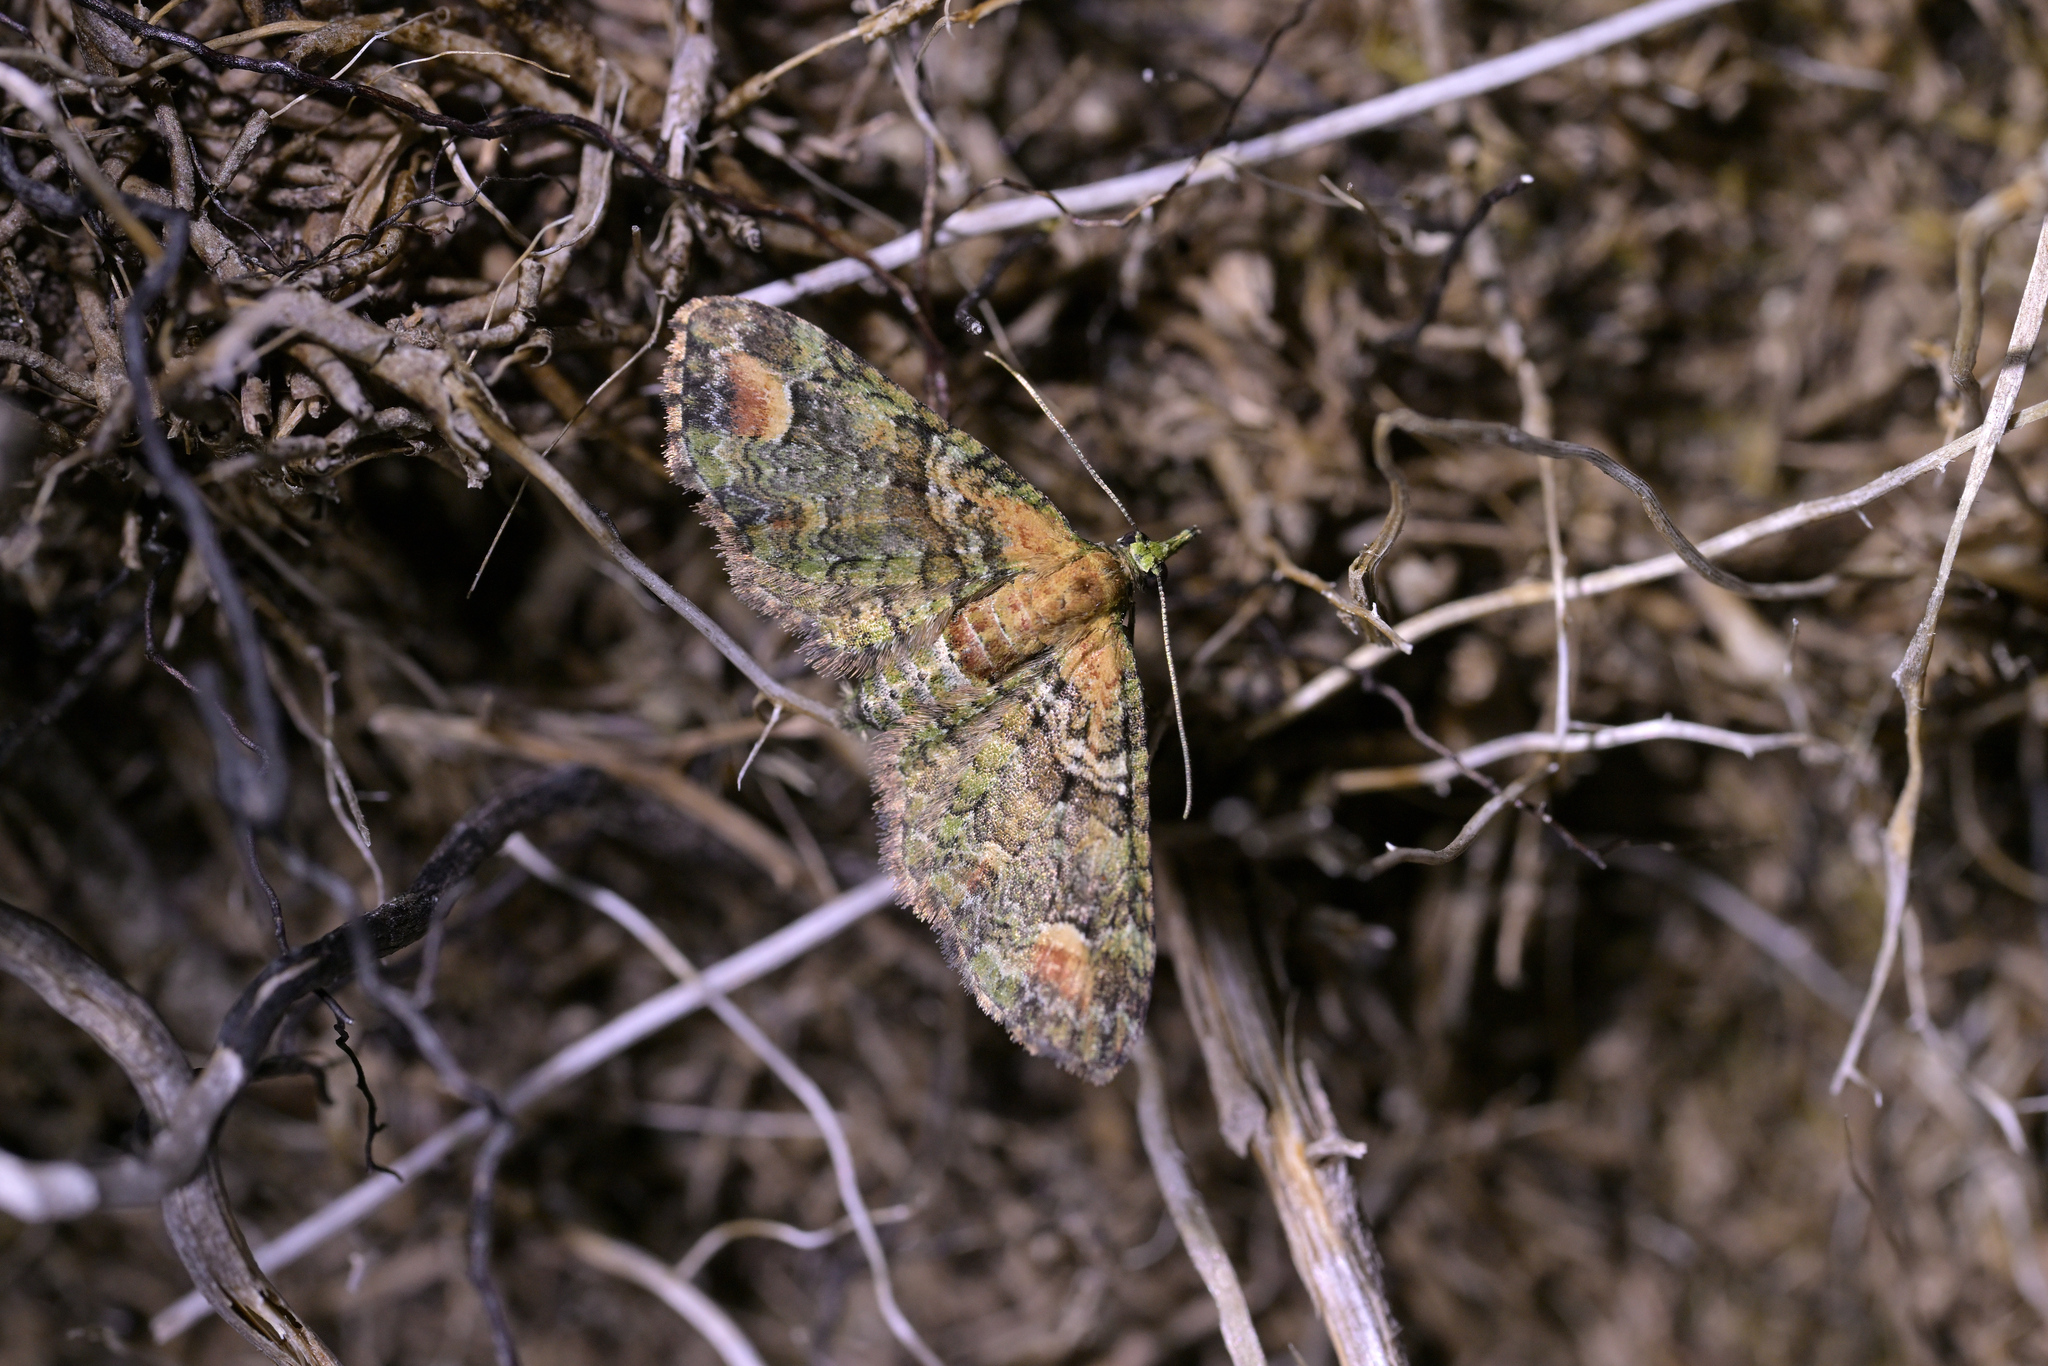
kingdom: Animalia
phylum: Arthropoda
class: Insecta
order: Lepidoptera
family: Geometridae
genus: Idaea
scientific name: Idaea mutanda
